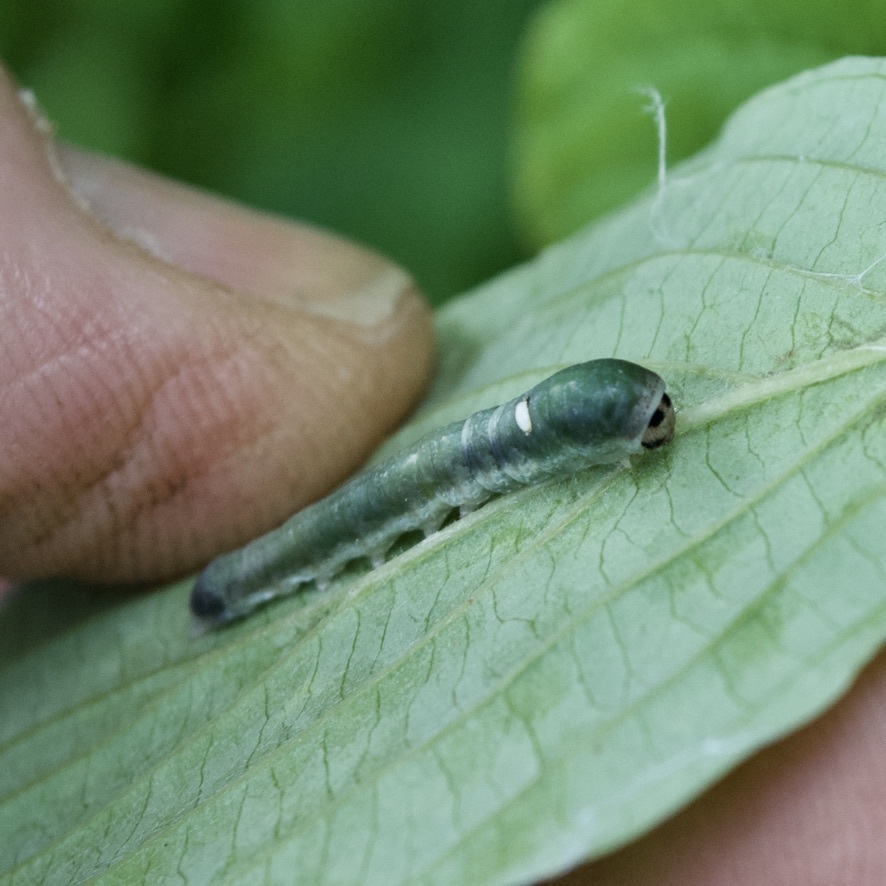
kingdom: Animalia
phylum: Arthropoda
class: Insecta
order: Lepidoptera
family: Drepanidae
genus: Euthyatira
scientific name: Euthyatira pudens
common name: Dogwood thyatirid moth
